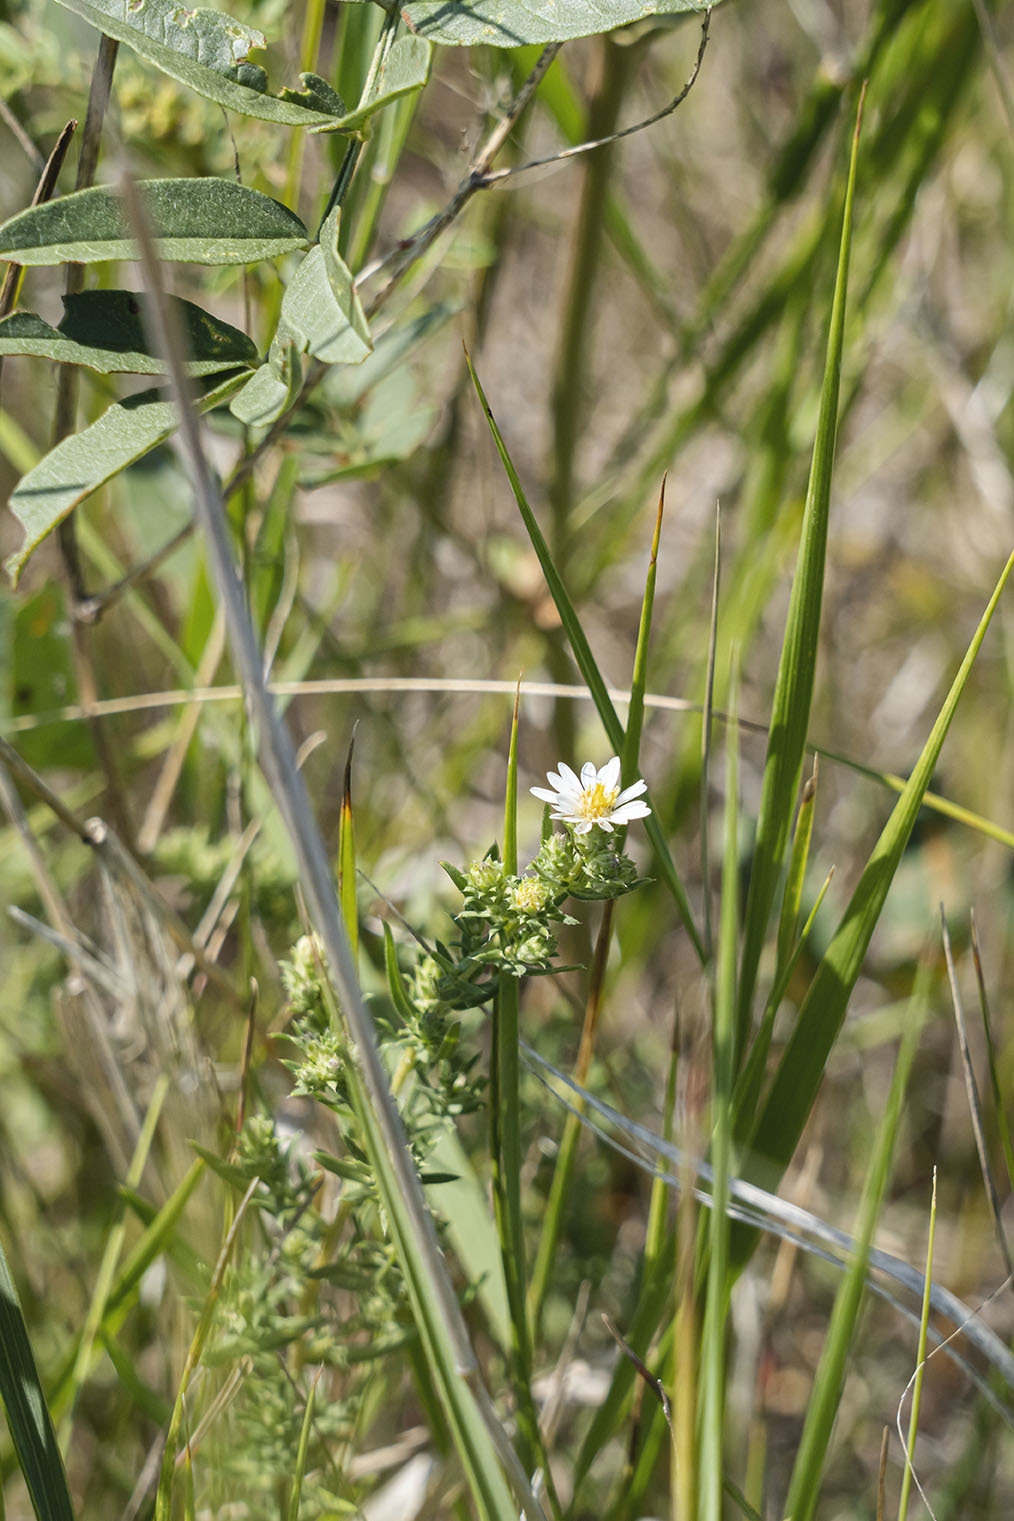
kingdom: Plantae
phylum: Tracheophyta
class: Magnoliopsida
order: Asterales
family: Asteraceae
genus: Symphyotrichum
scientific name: Symphyotrichum ericoides
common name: Heath aster
